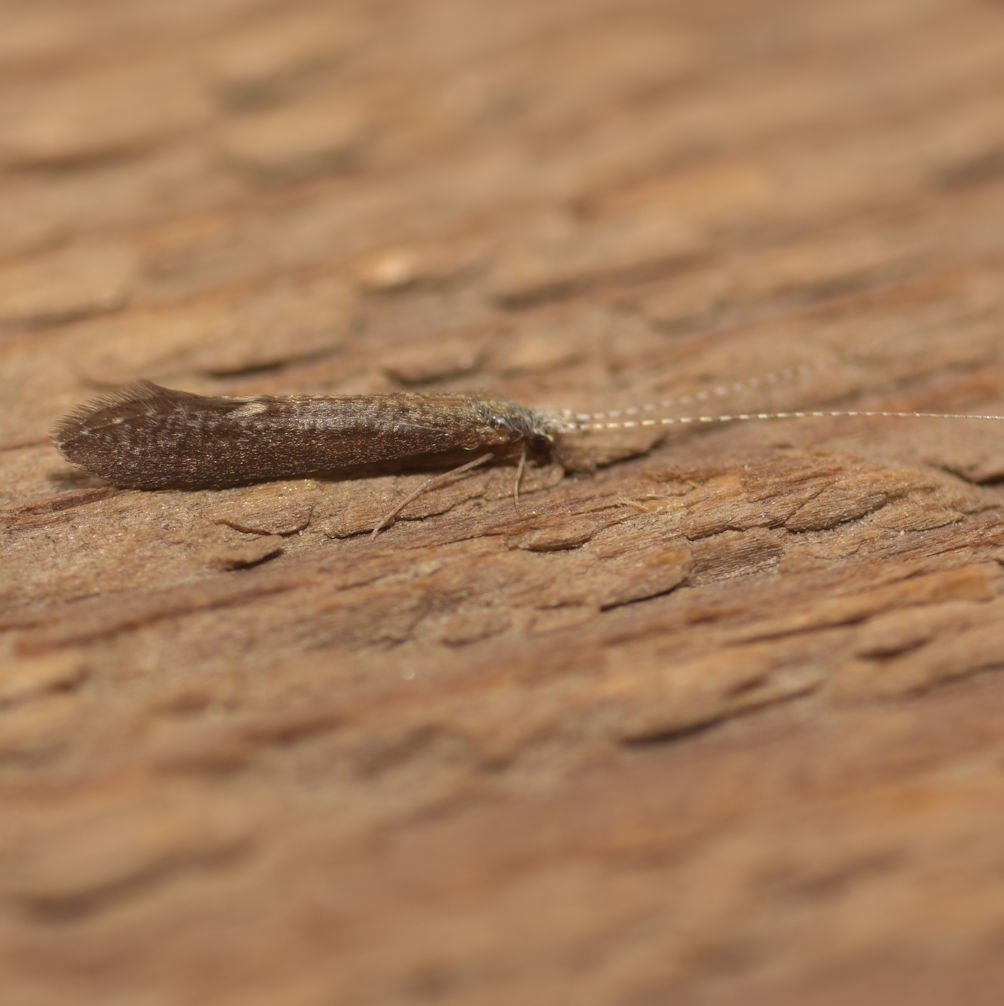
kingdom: Animalia
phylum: Arthropoda
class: Insecta
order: Trichoptera
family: Leptoceridae
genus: Leptocerus
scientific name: Leptocerus americanus
